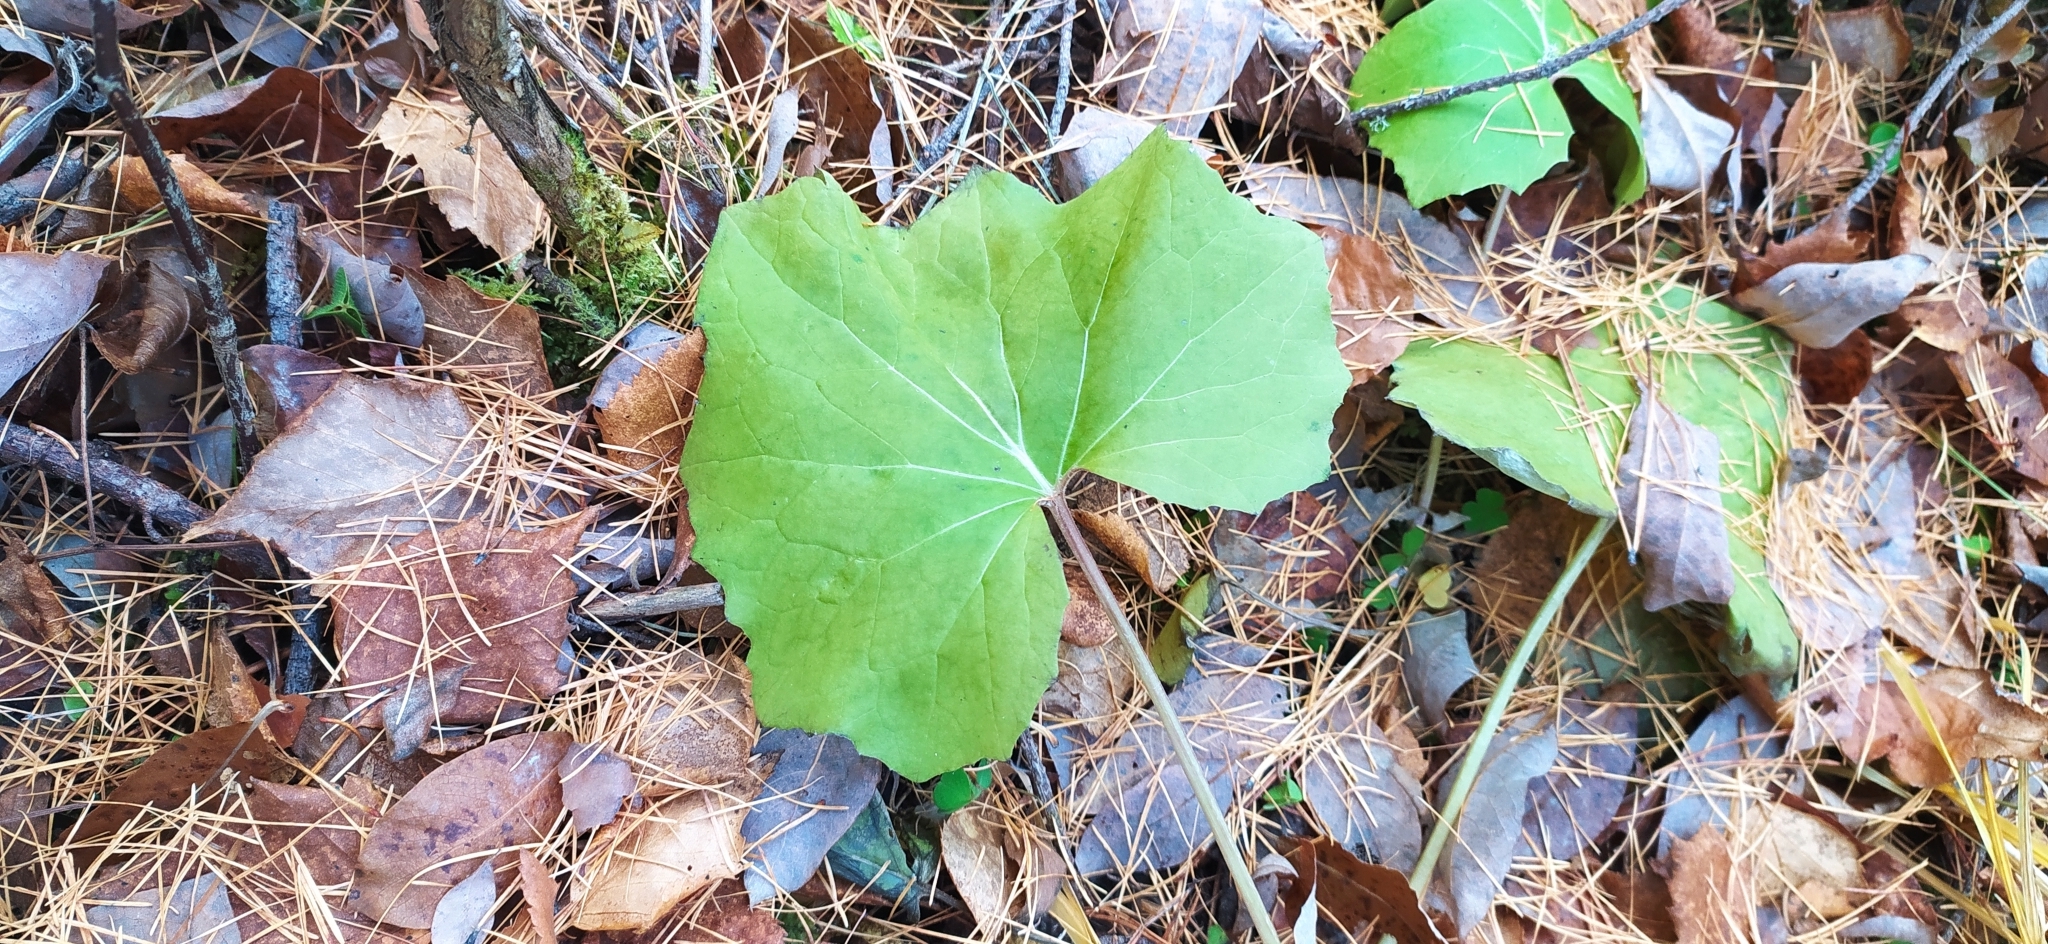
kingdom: Plantae
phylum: Tracheophyta
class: Magnoliopsida
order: Asterales
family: Asteraceae
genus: Tussilago
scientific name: Tussilago farfara
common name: Coltsfoot
